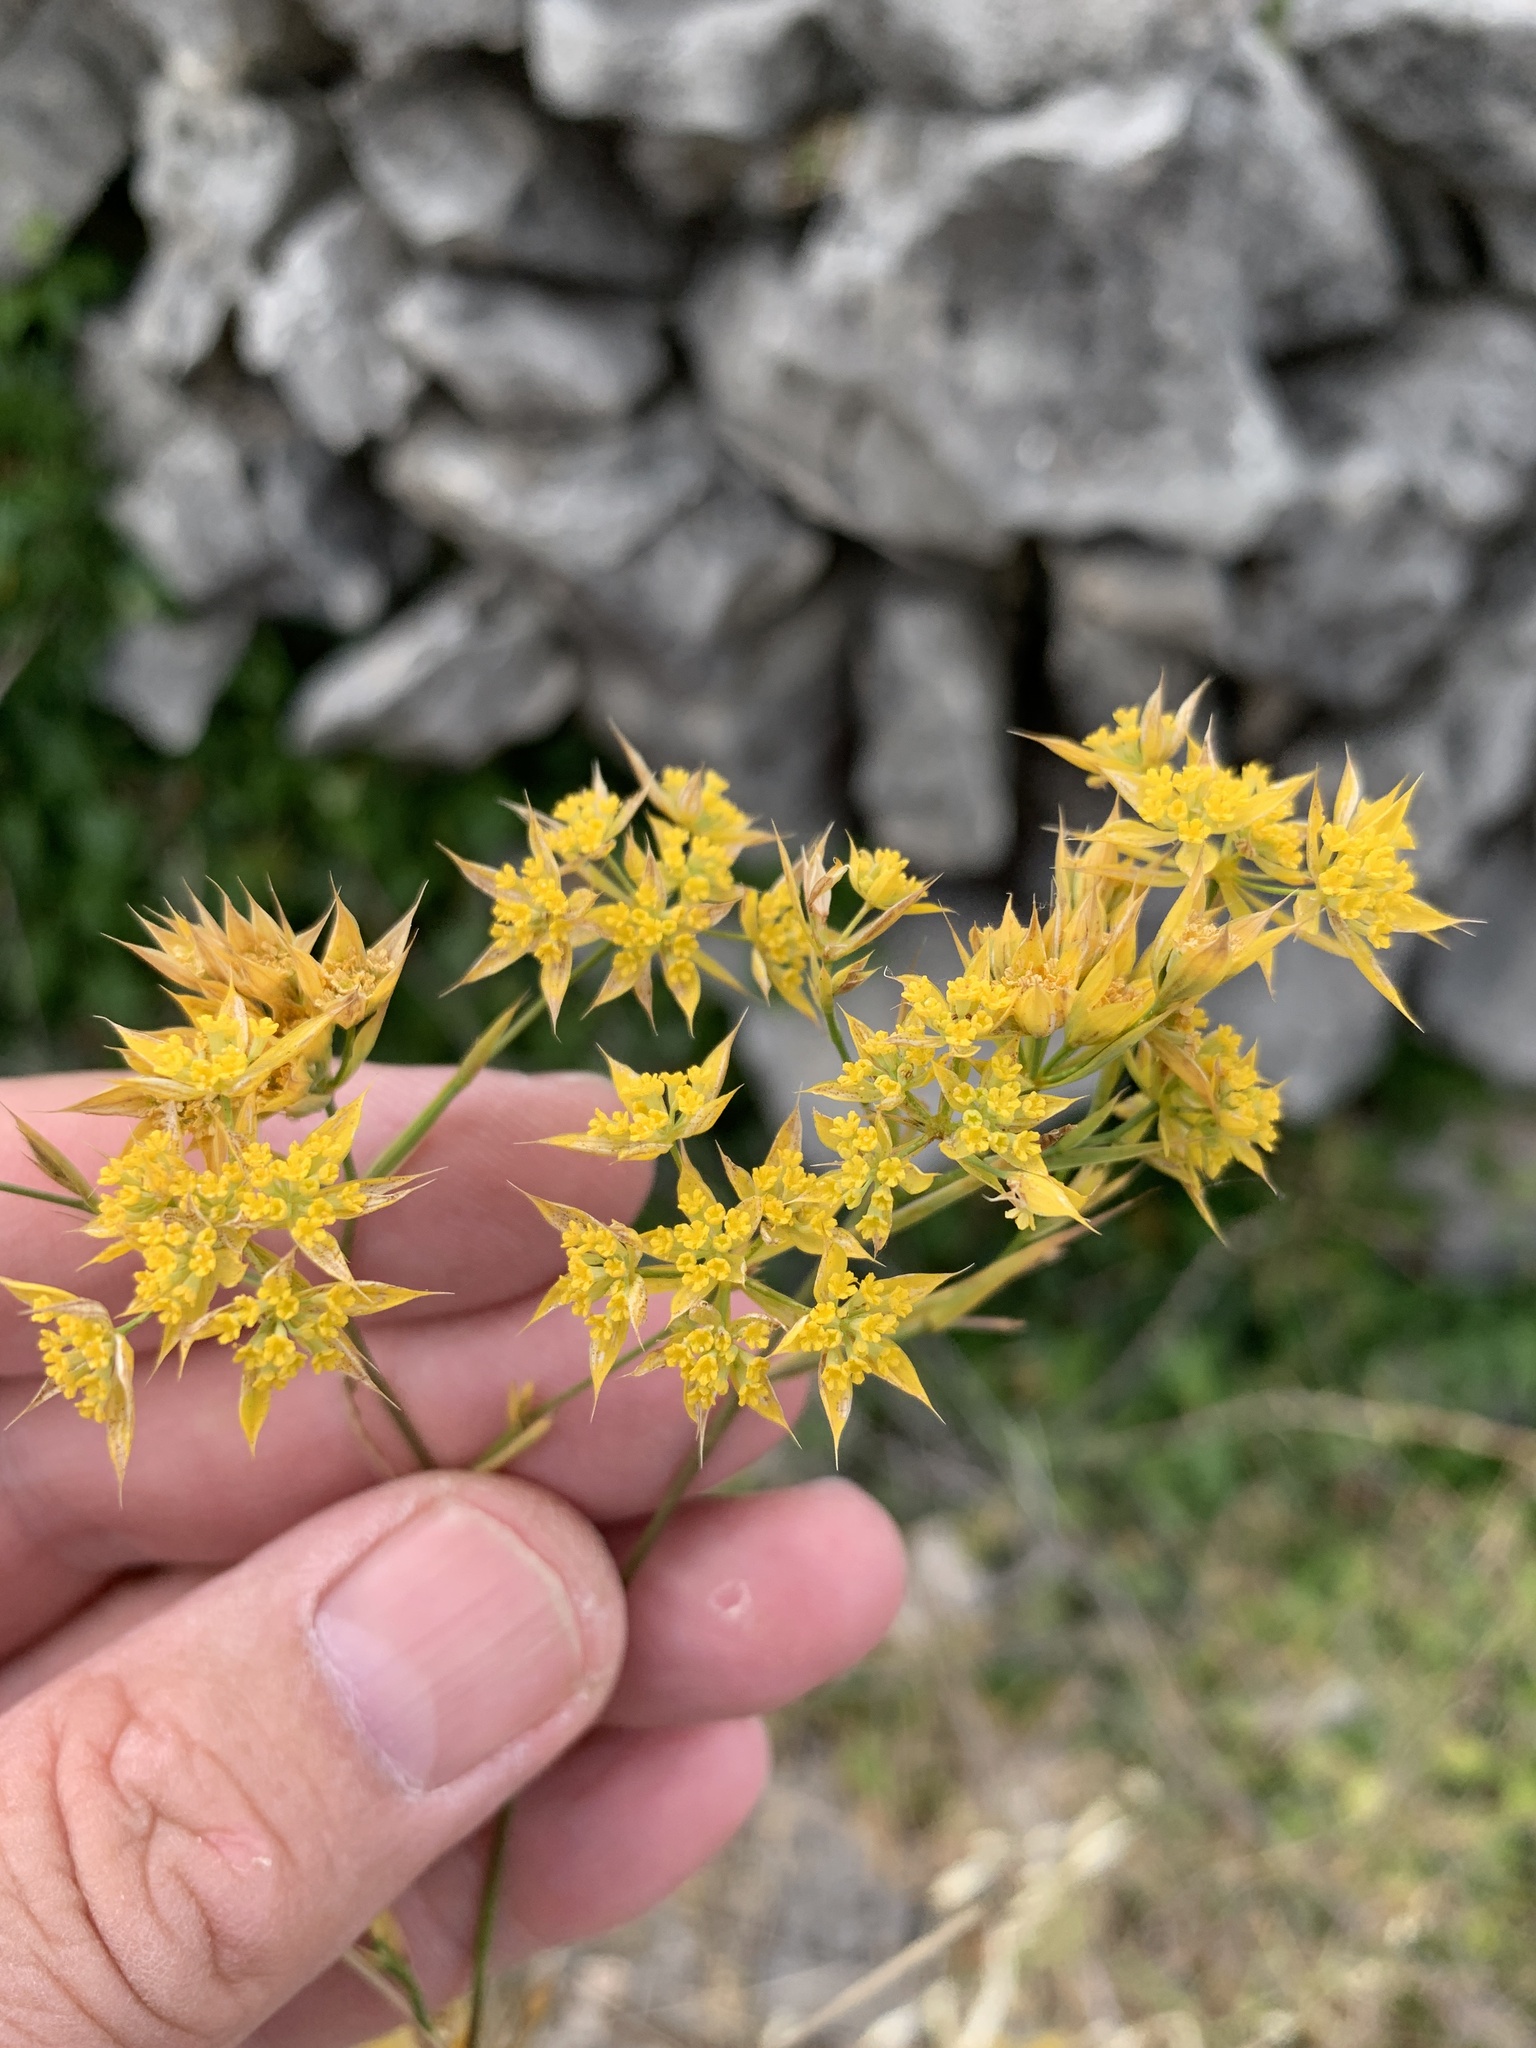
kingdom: Plantae
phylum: Tracheophyta
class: Magnoliopsida
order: Apiales
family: Apiaceae
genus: Bupleurum
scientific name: Bupleurum veronense
